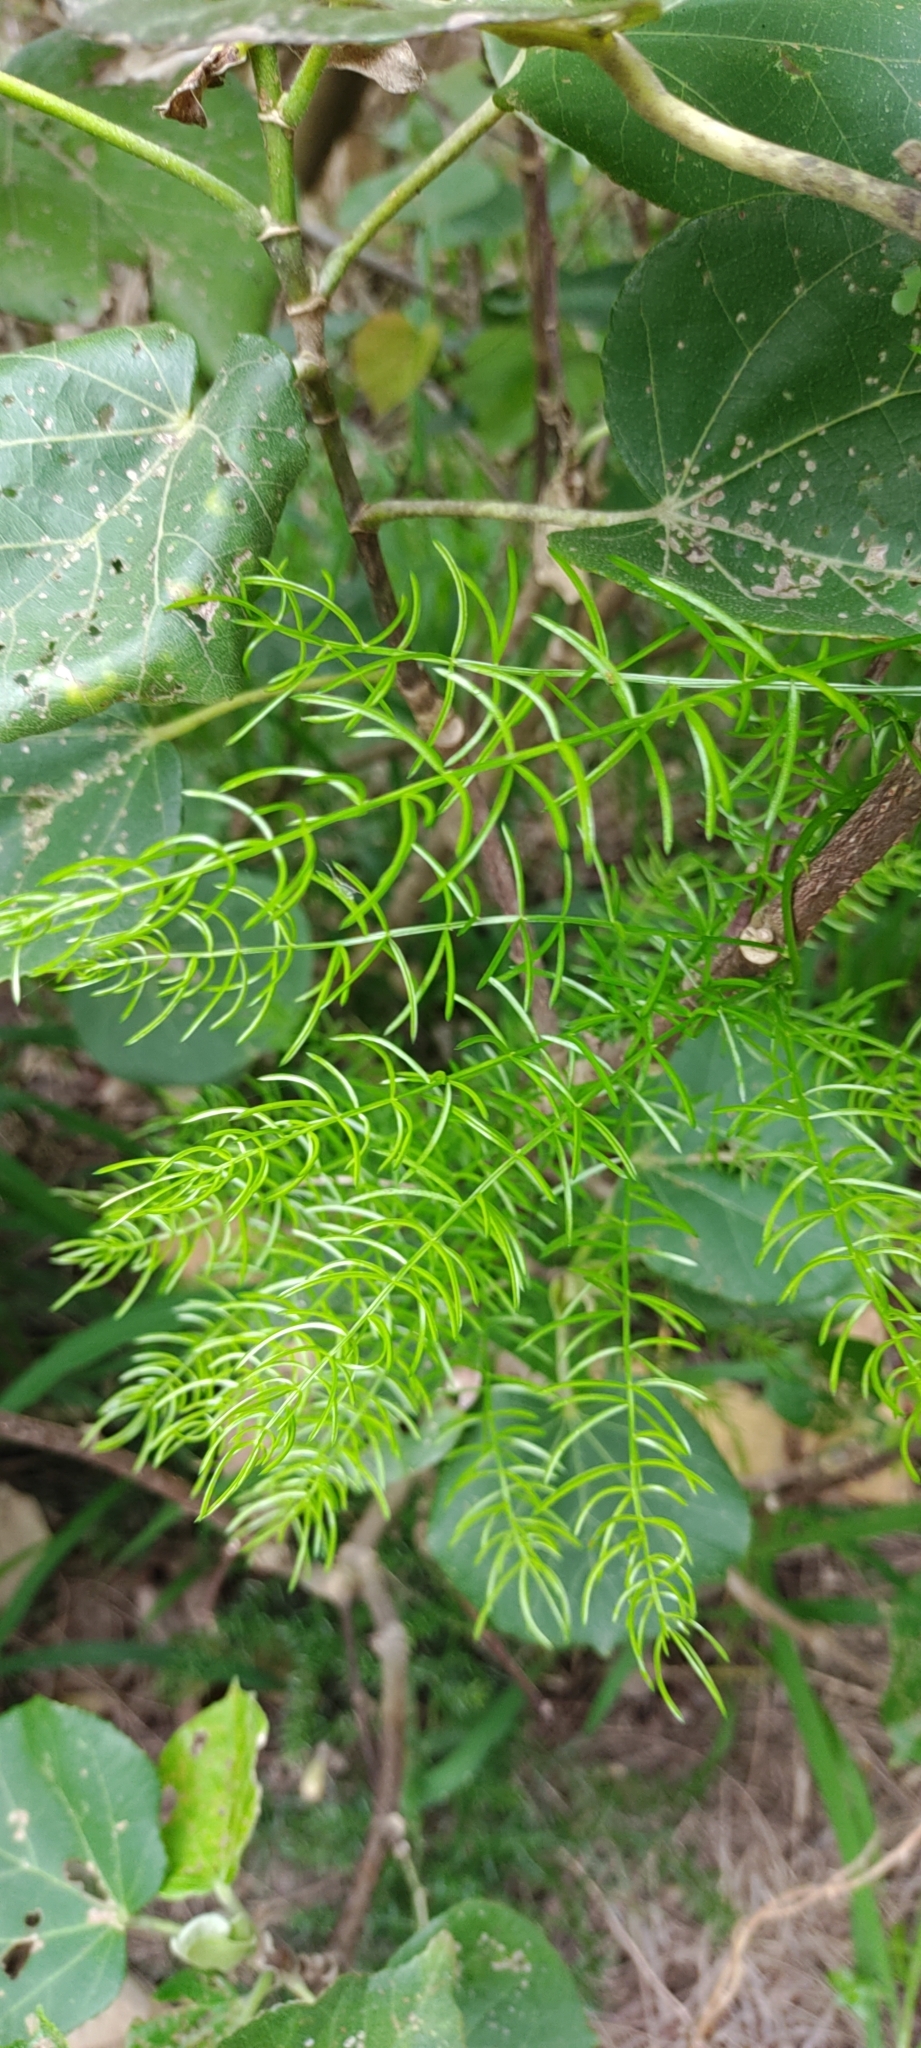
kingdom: Plantae
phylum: Tracheophyta
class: Liliopsida
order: Asparagales
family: Asparagaceae
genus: Asparagus
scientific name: Asparagus cochinchinensis
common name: Chinese asparagus
